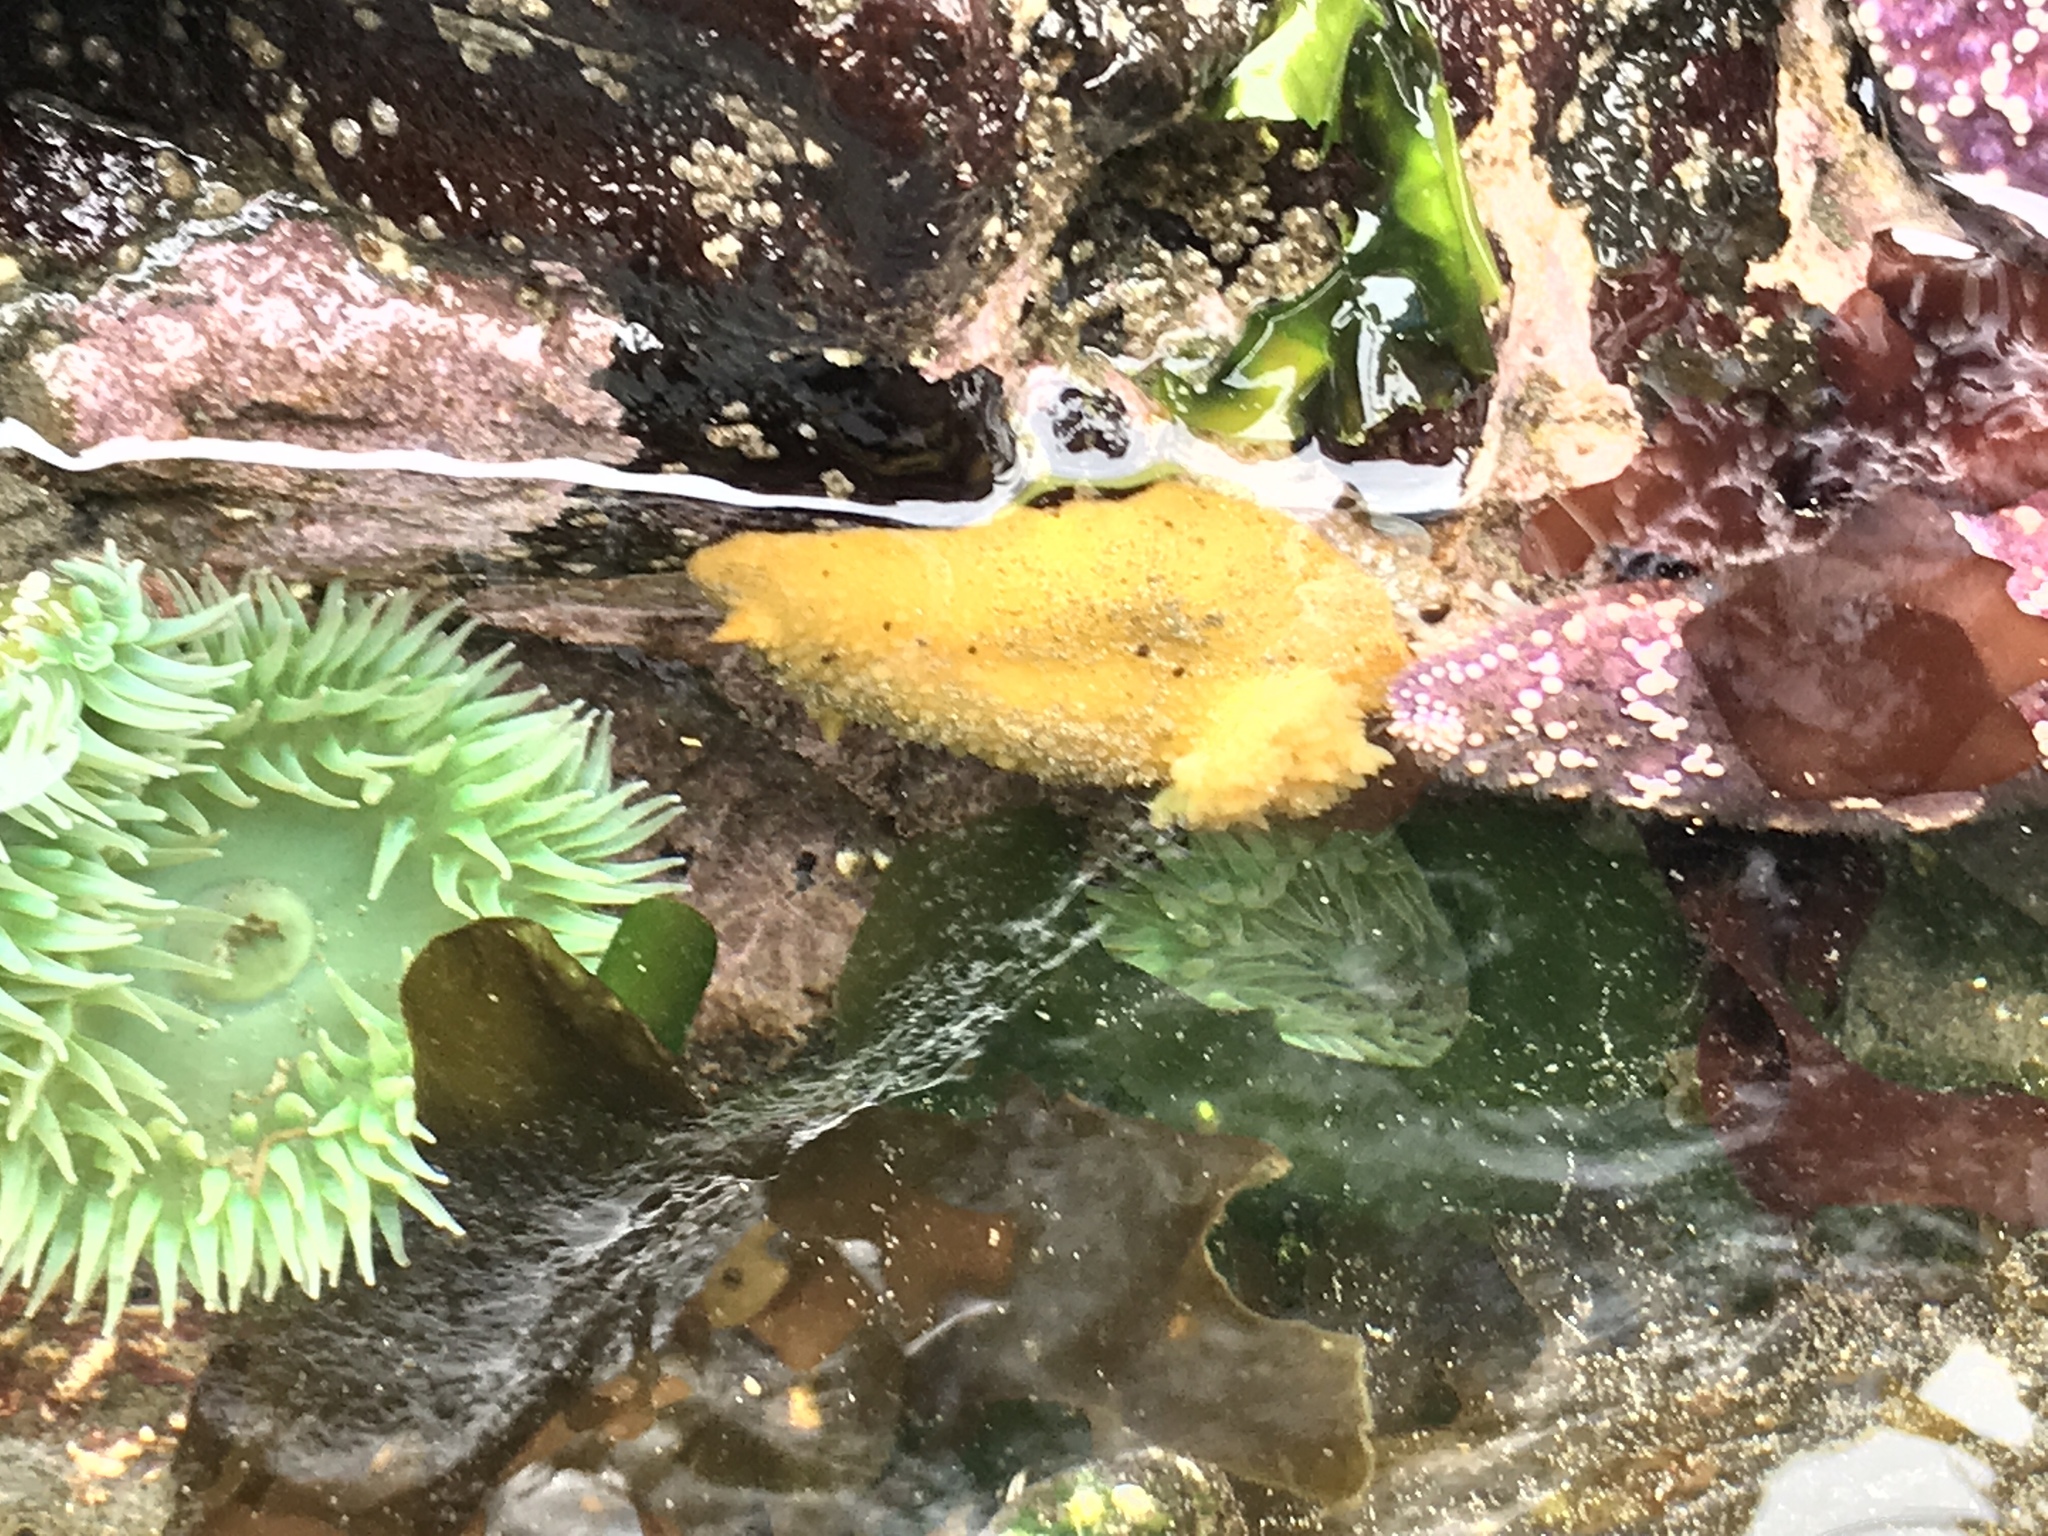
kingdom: Animalia
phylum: Mollusca
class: Gastropoda
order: Nudibranchia
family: Dorididae
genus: Doris
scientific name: Doris montereyensis
